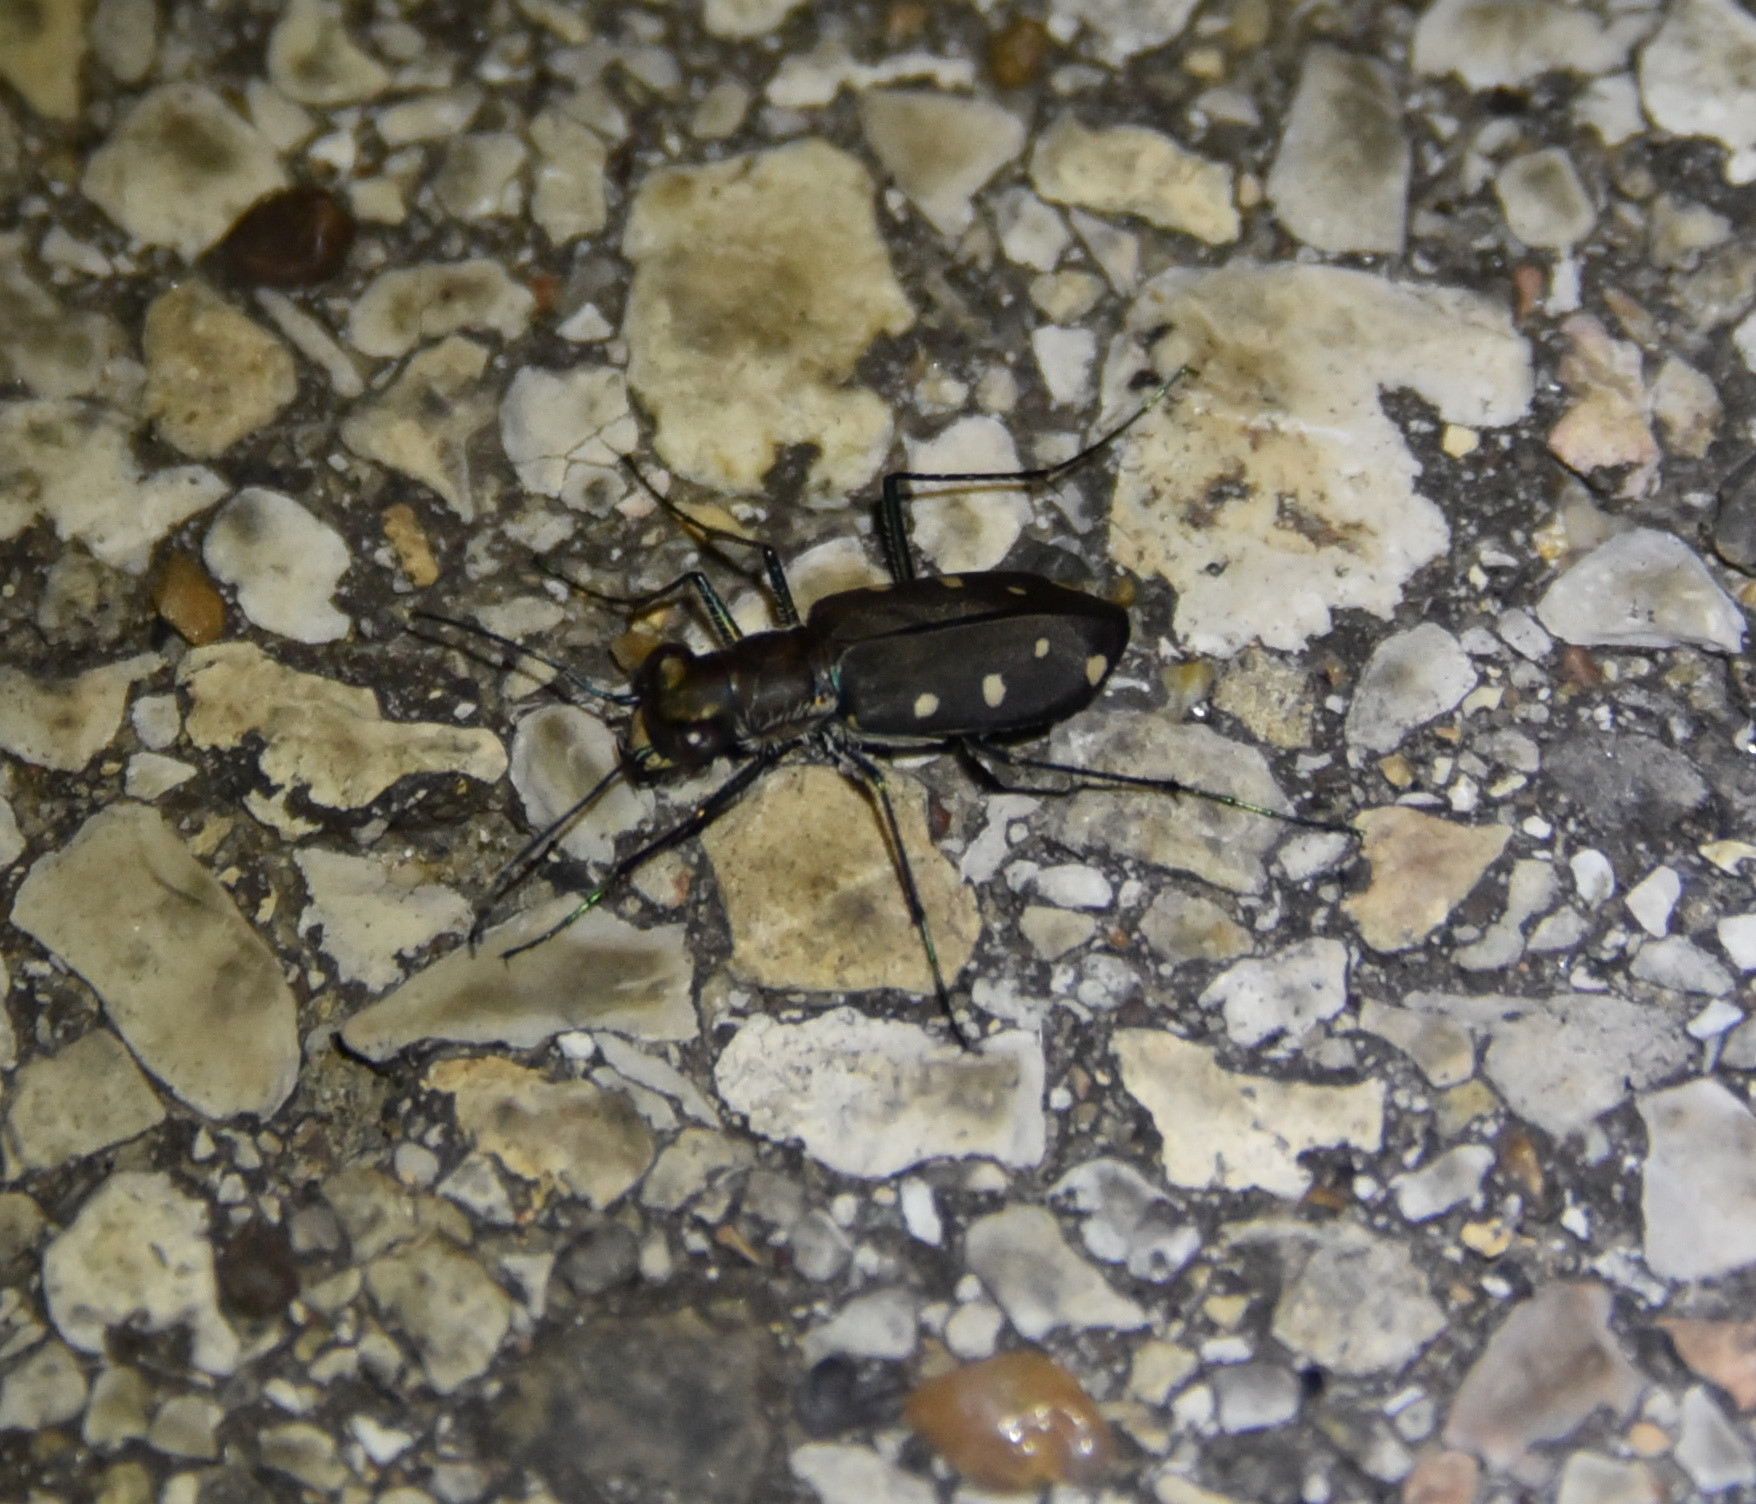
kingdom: Animalia
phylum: Arthropoda
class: Insecta
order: Coleoptera
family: Carabidae
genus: Cicindela
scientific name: Cicindela ocellata
